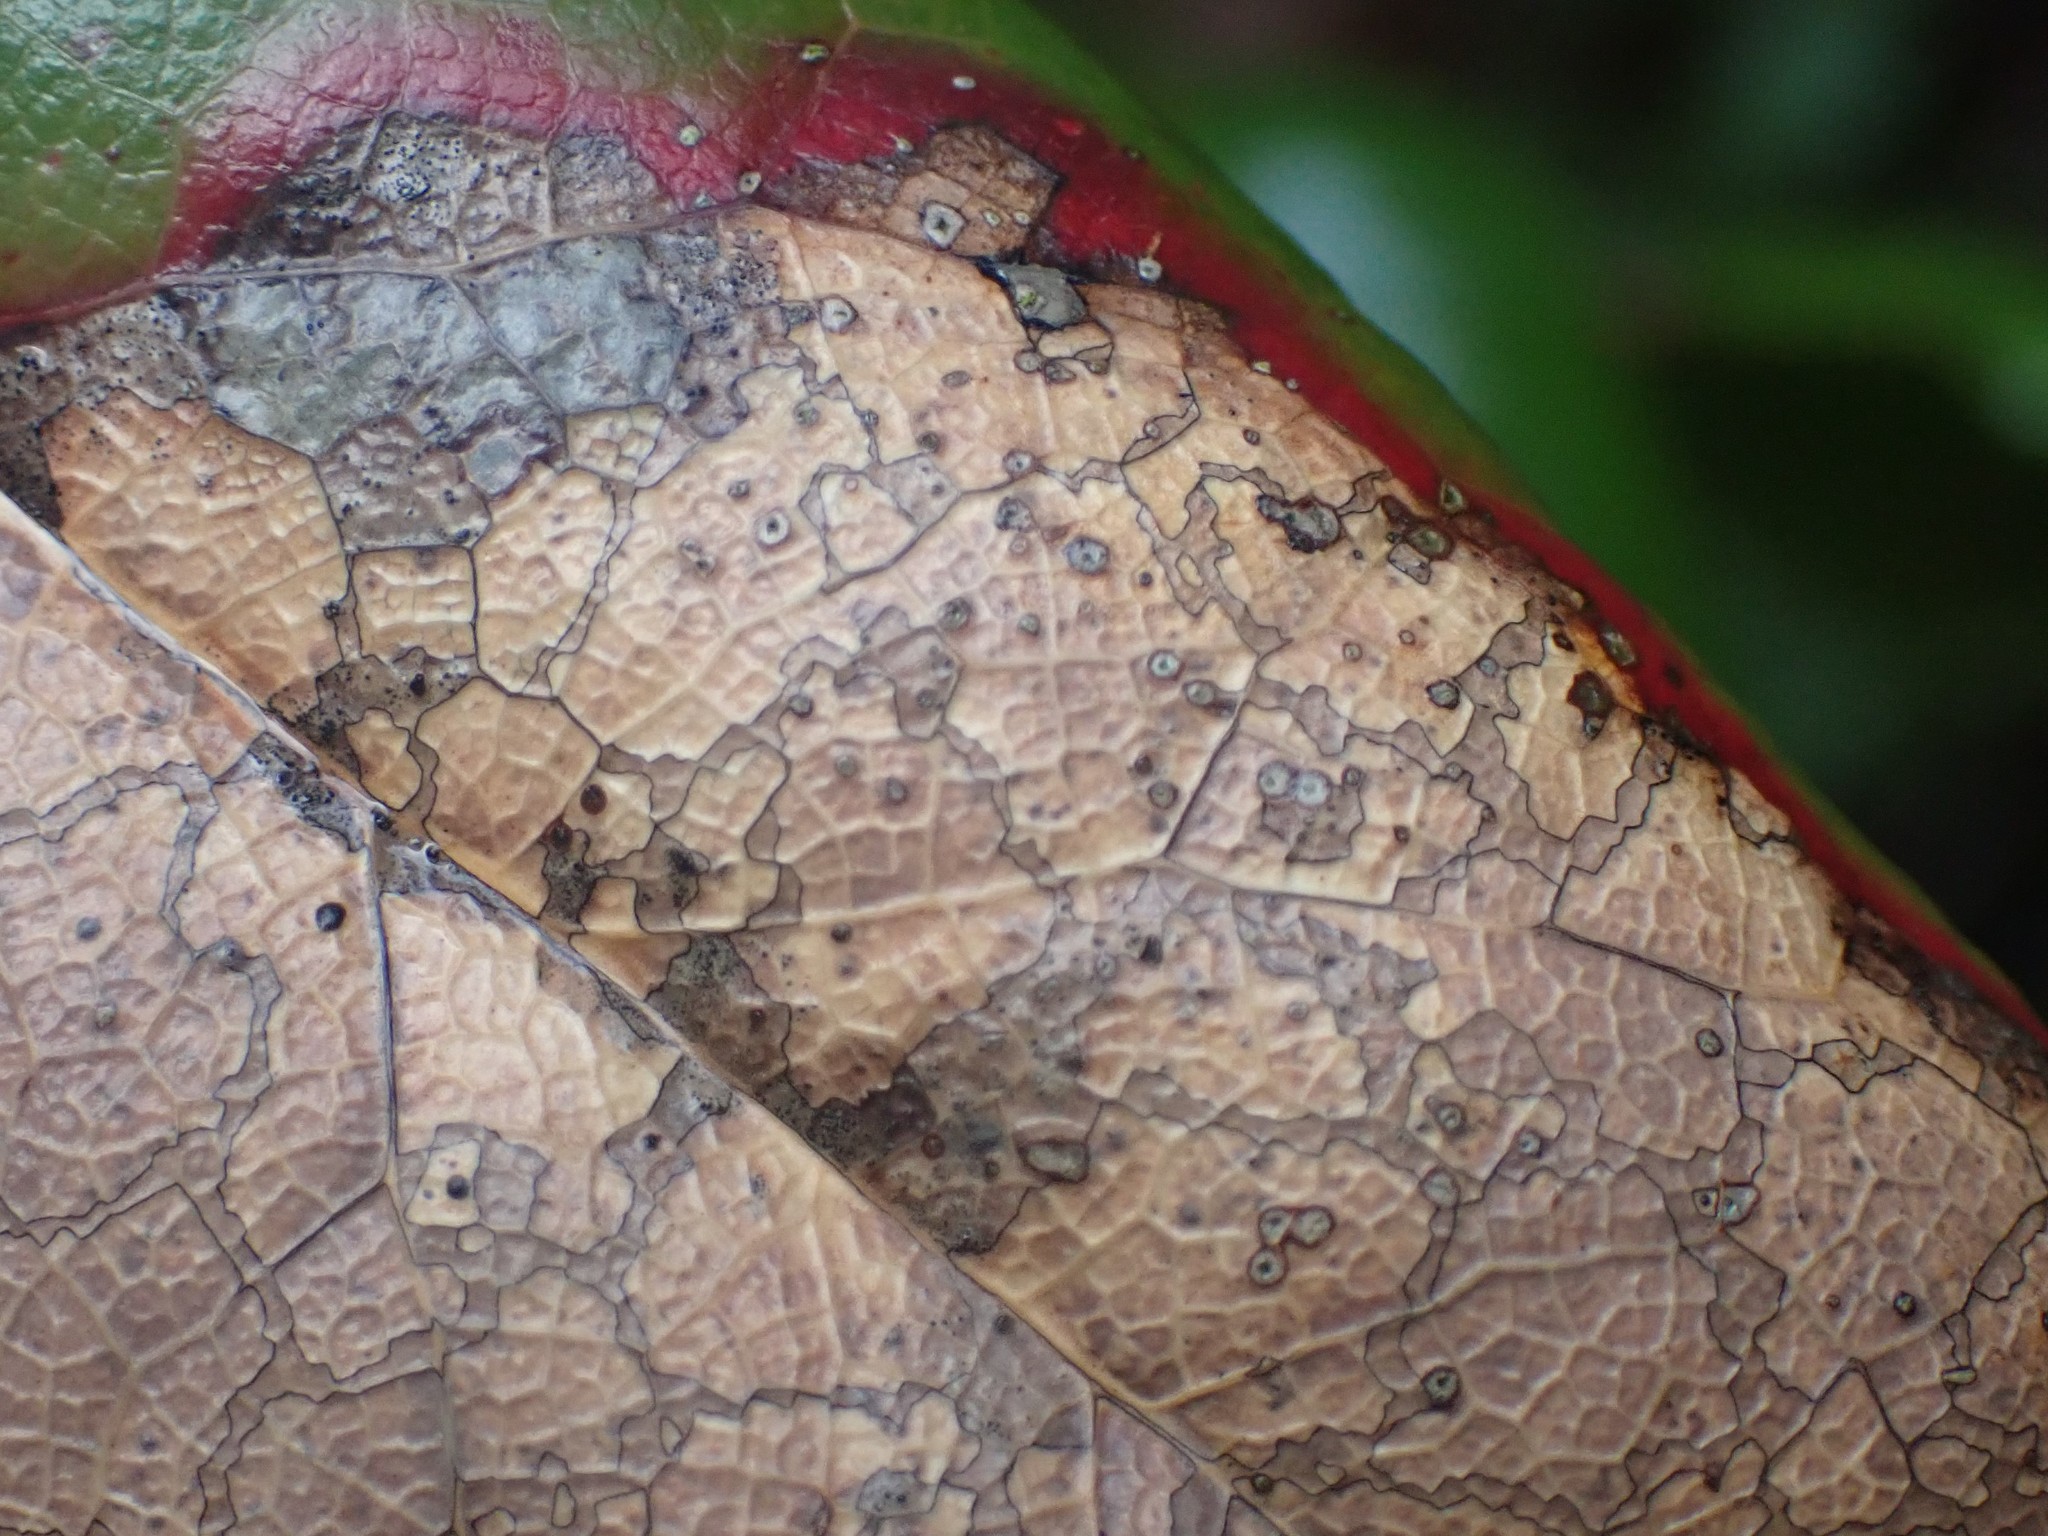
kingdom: Fungi
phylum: Ascomycota
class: Leotiomycetes
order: Rhytismatales
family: Rhytismataceae
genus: Coccomyces
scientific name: Coccomyces dentatus
